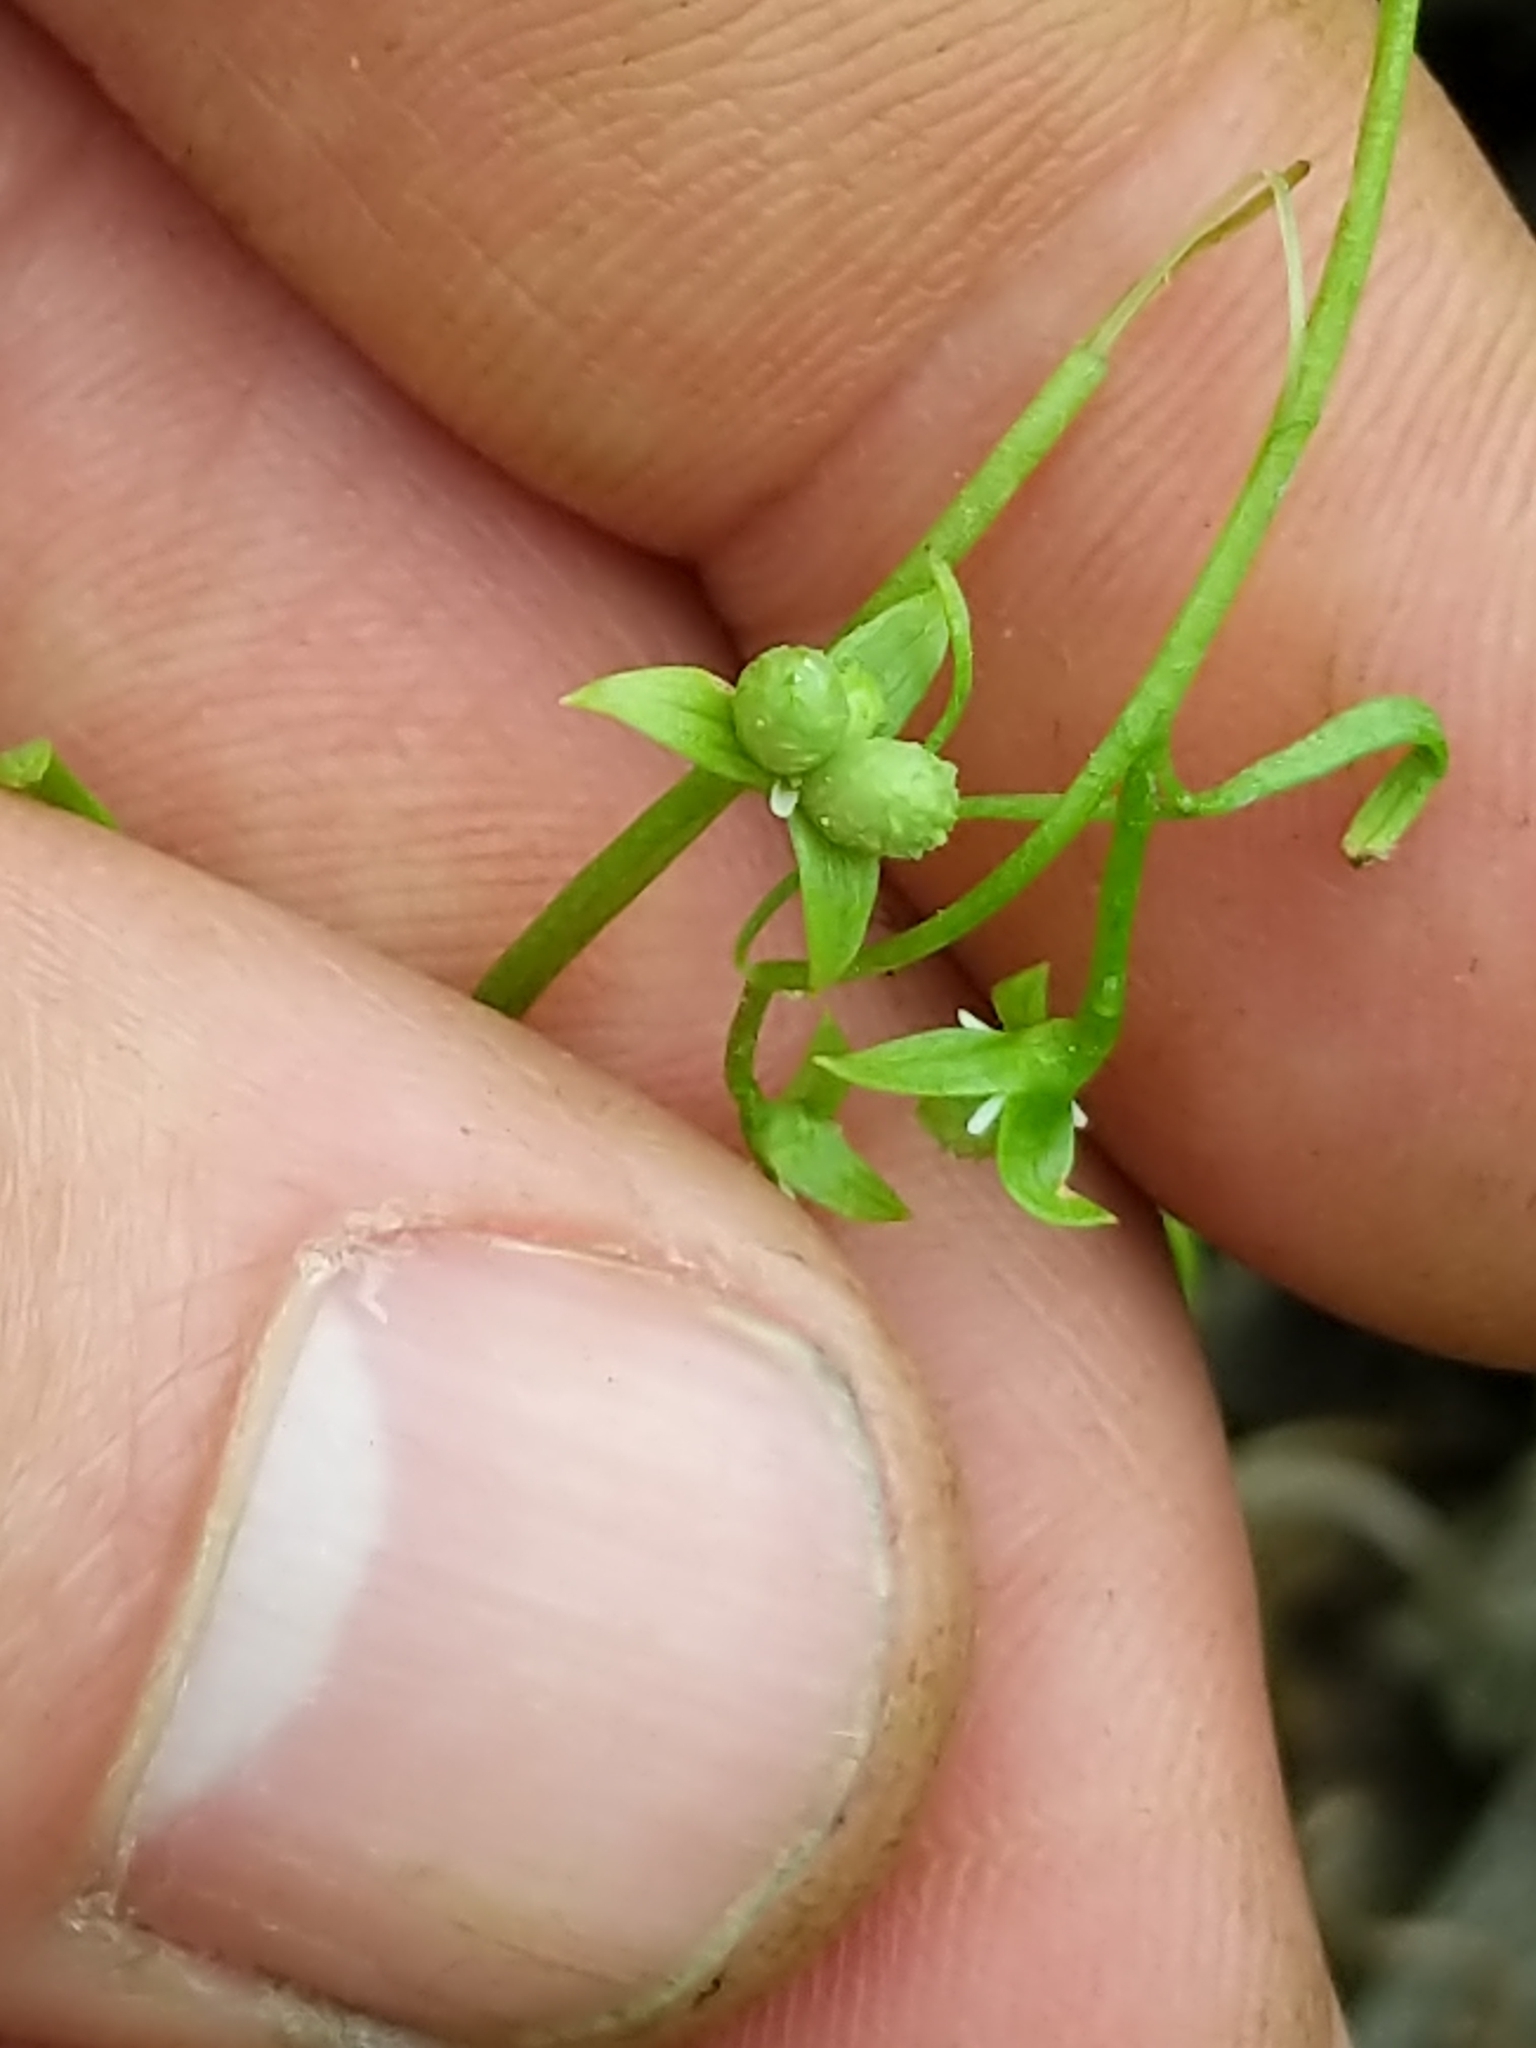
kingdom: Plantae
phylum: Tracheophyta
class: Magnoliopsida
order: Brassicales
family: Limnanthaceae
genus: Floerkea
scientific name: Floerkea proserpinacoides
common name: False mermaid
